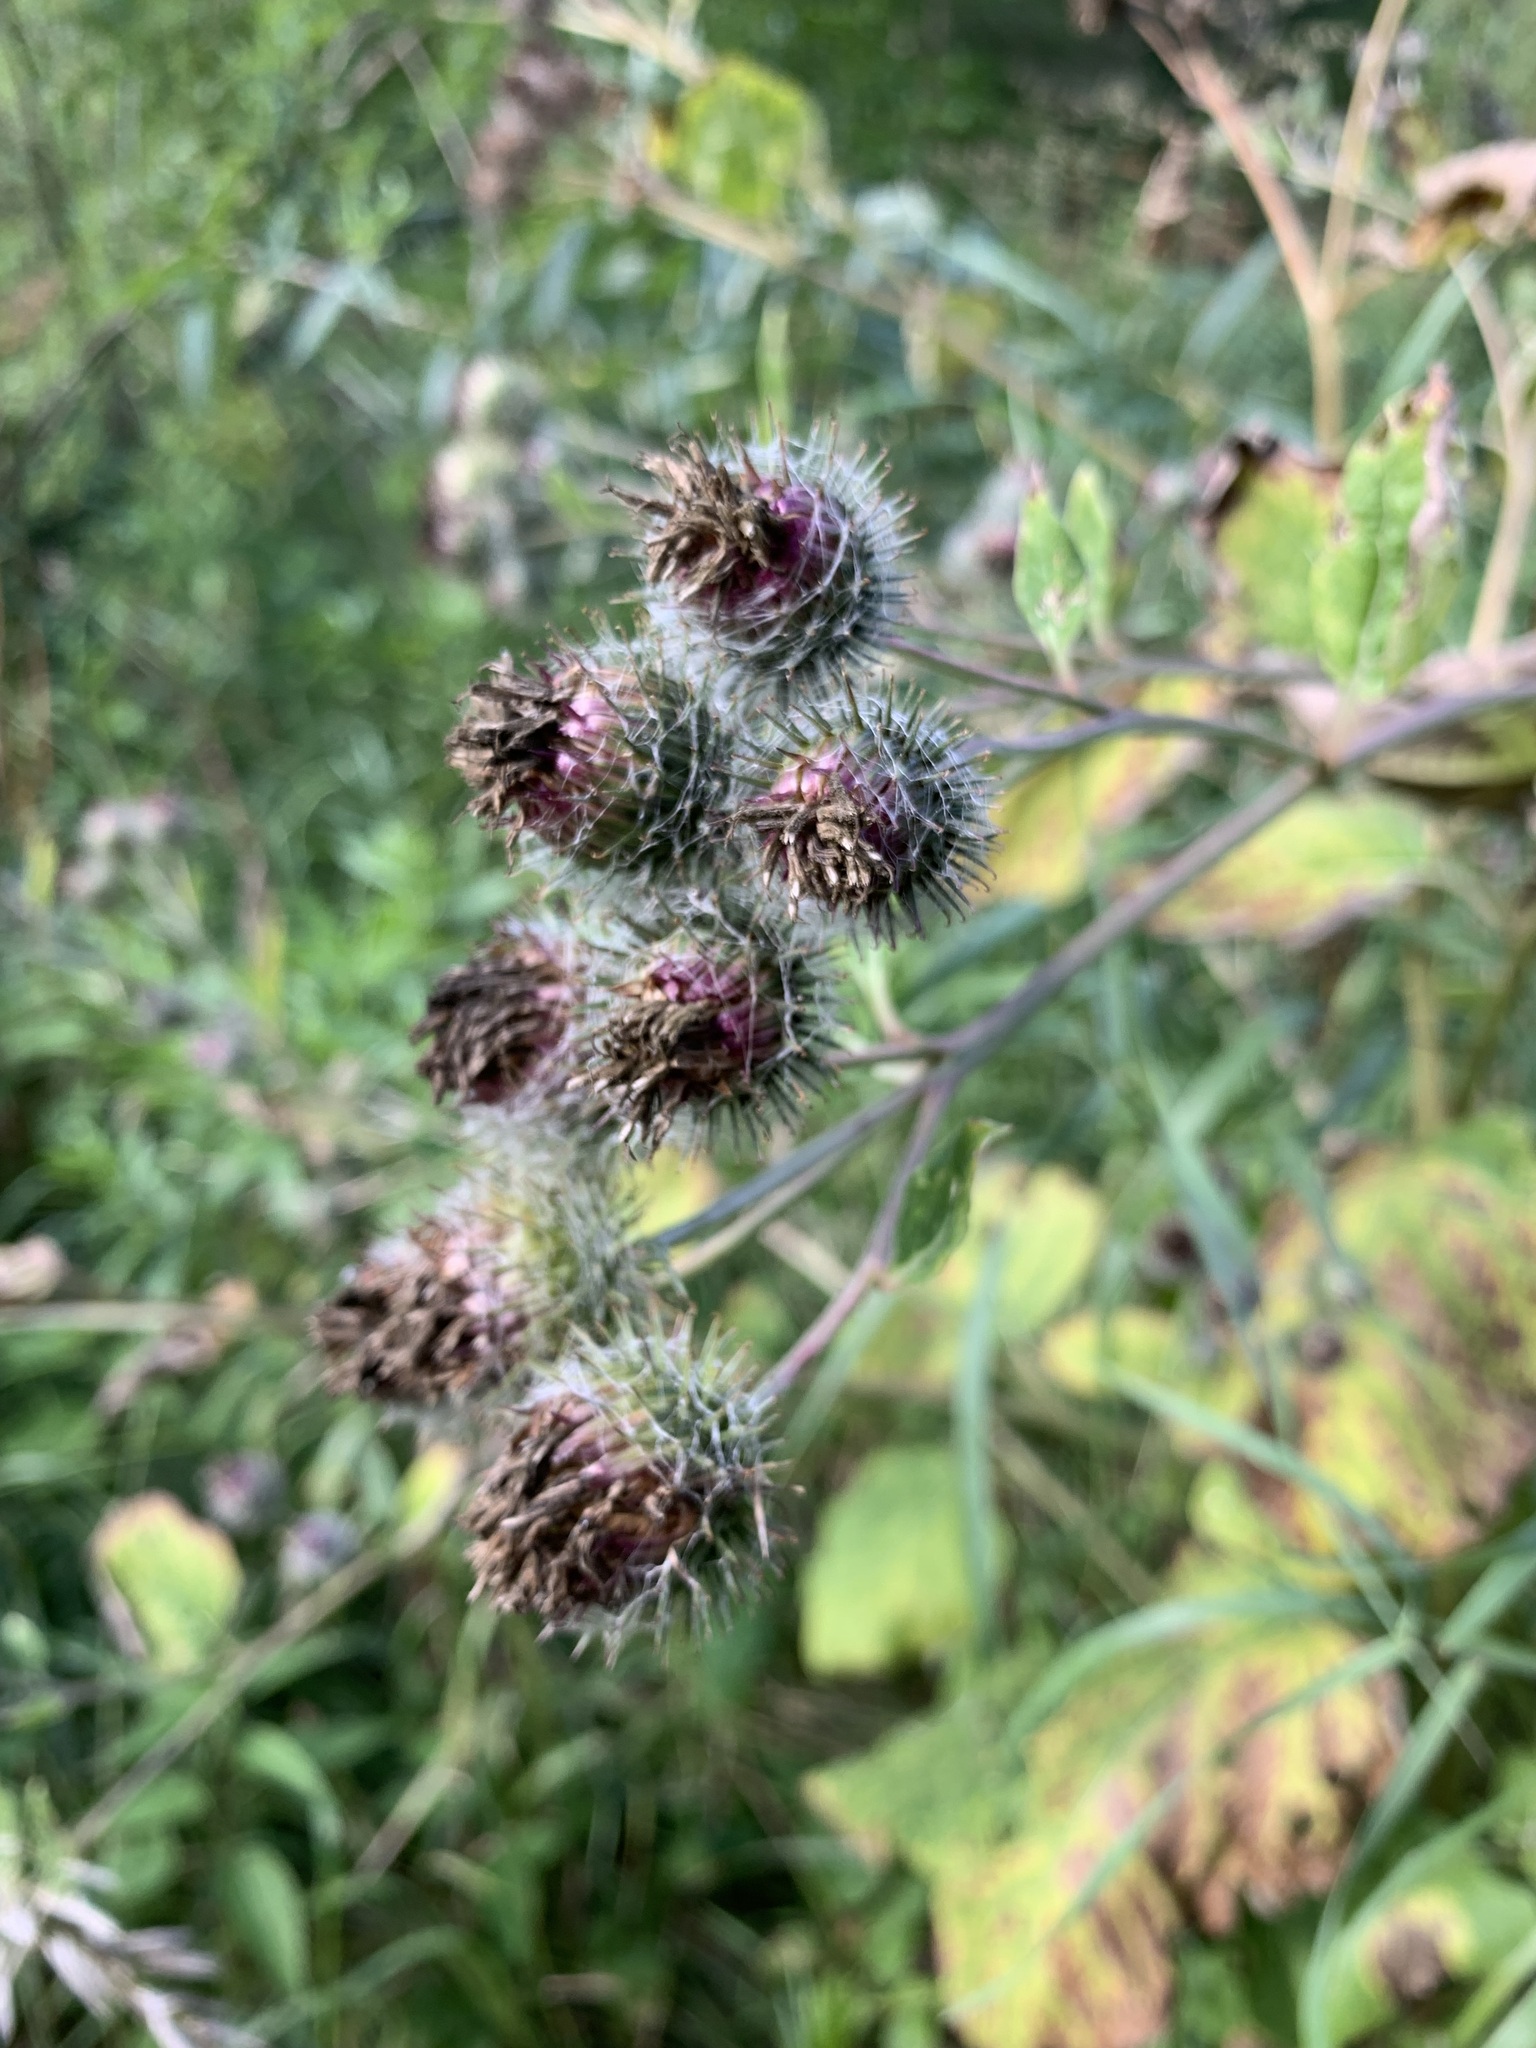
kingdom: Plantae
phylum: Tracheophyta
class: Magnoliopsida
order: Asterales
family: Asteraceae
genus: Arctium
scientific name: Arctium tomentosum
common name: Woolly burdock
